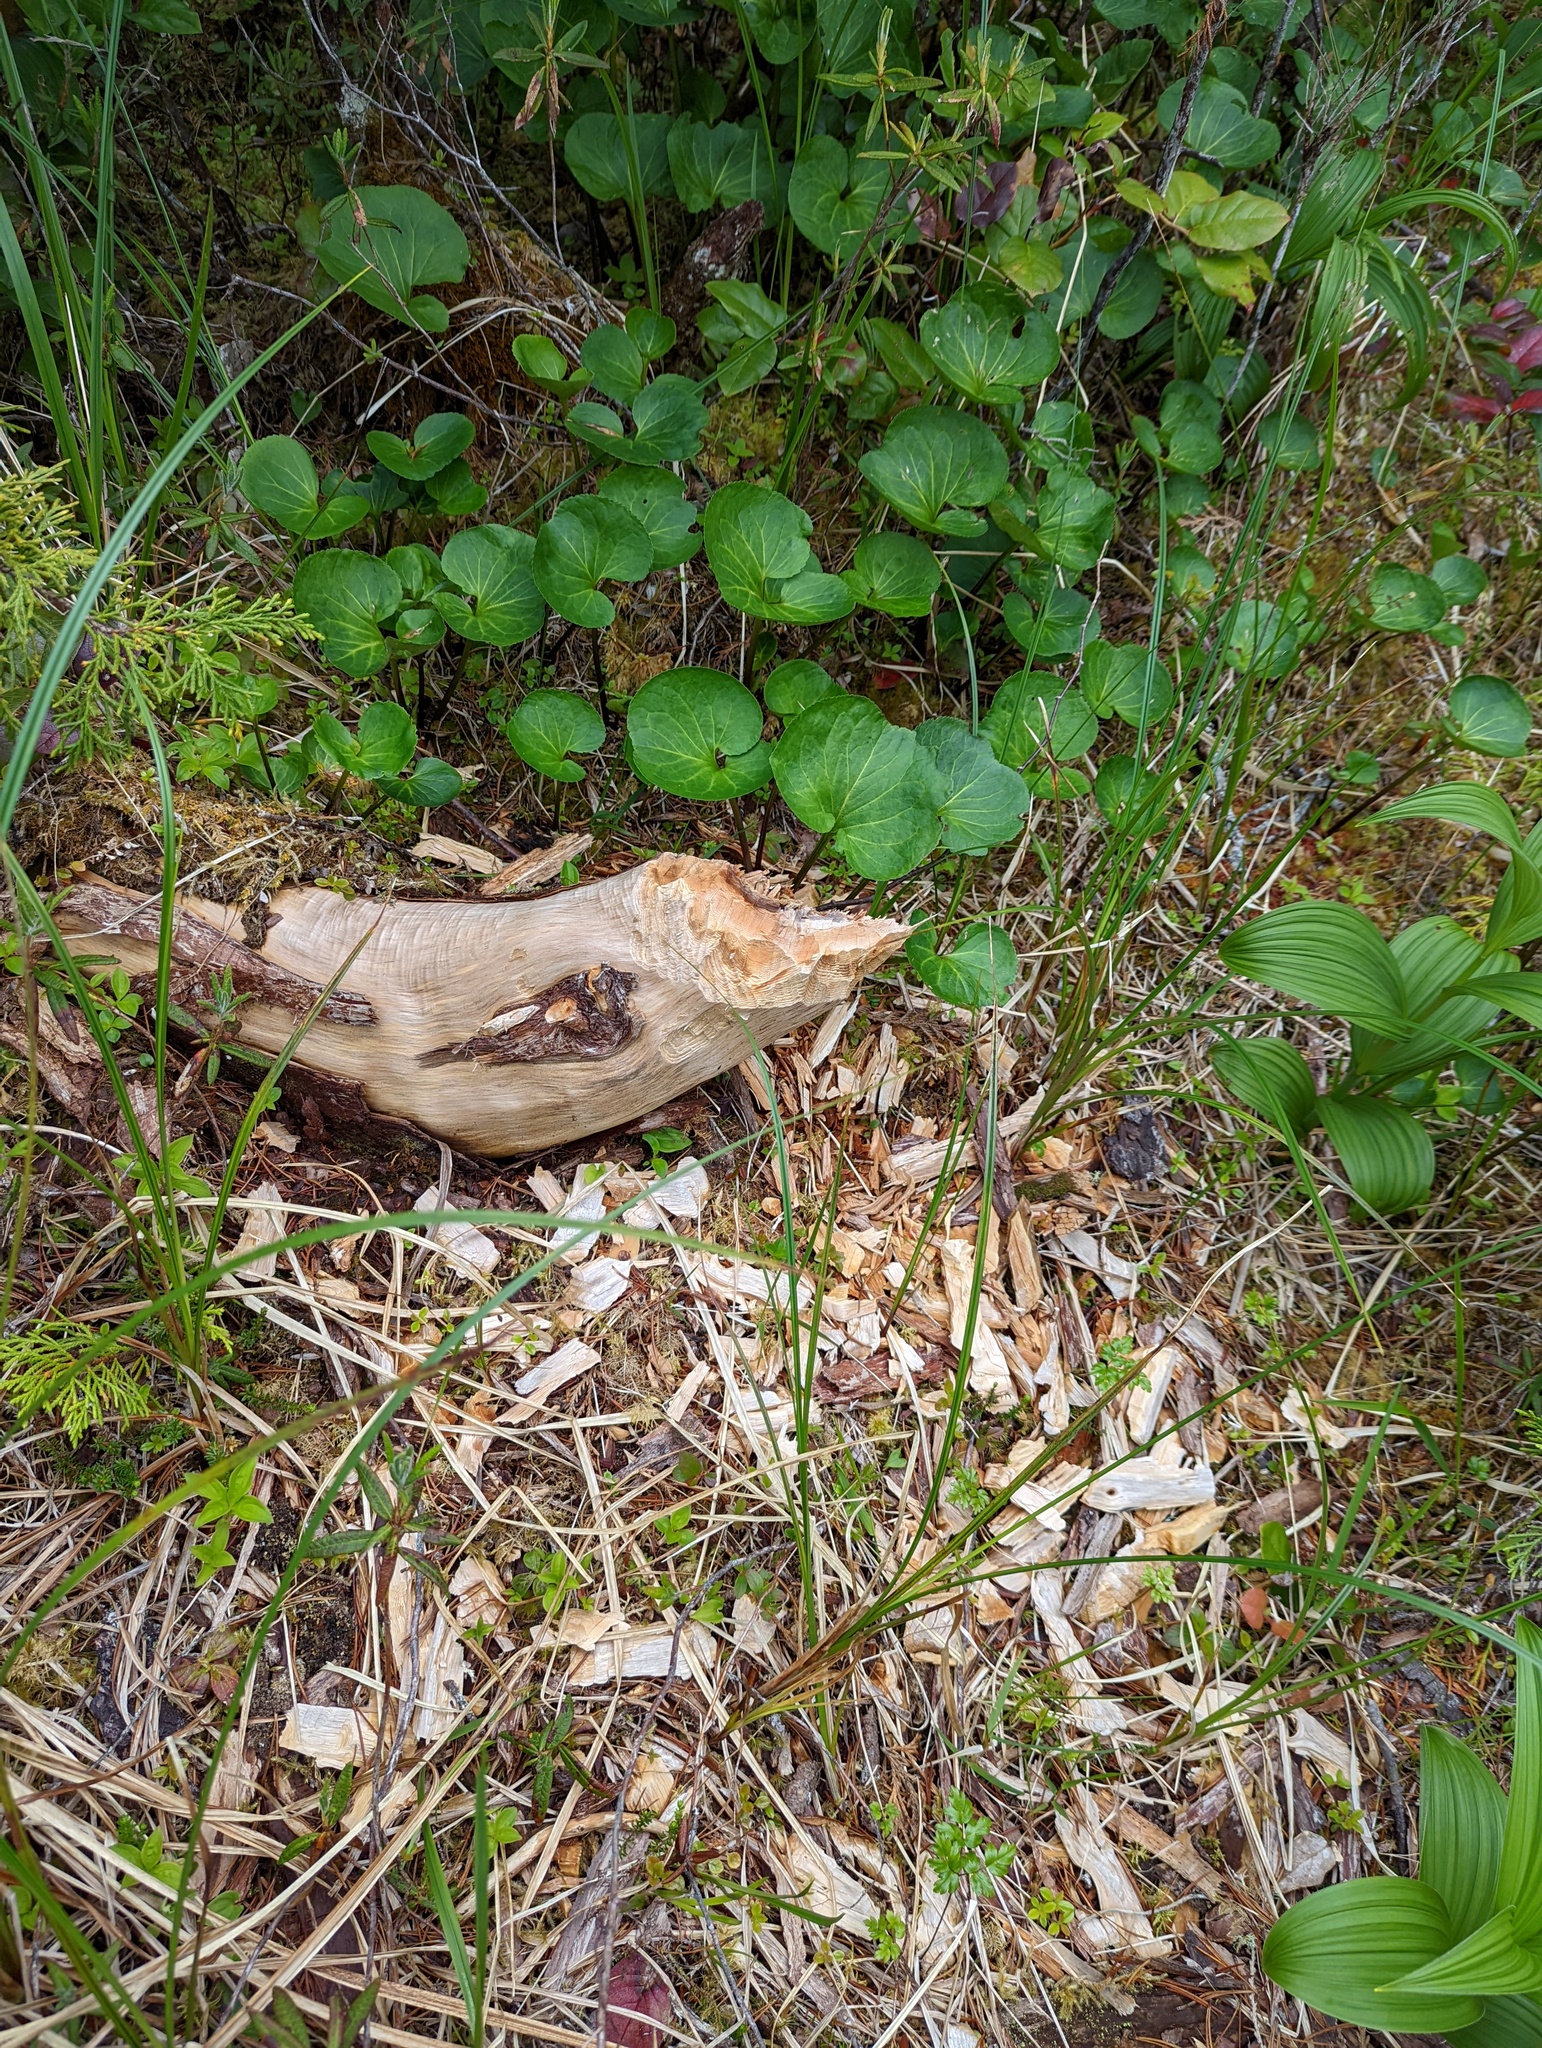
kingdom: Animalia
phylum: Chordata
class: Mammalia
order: Rodentia
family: Castoridae
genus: Castor
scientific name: Castor canadensis
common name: American beaver
